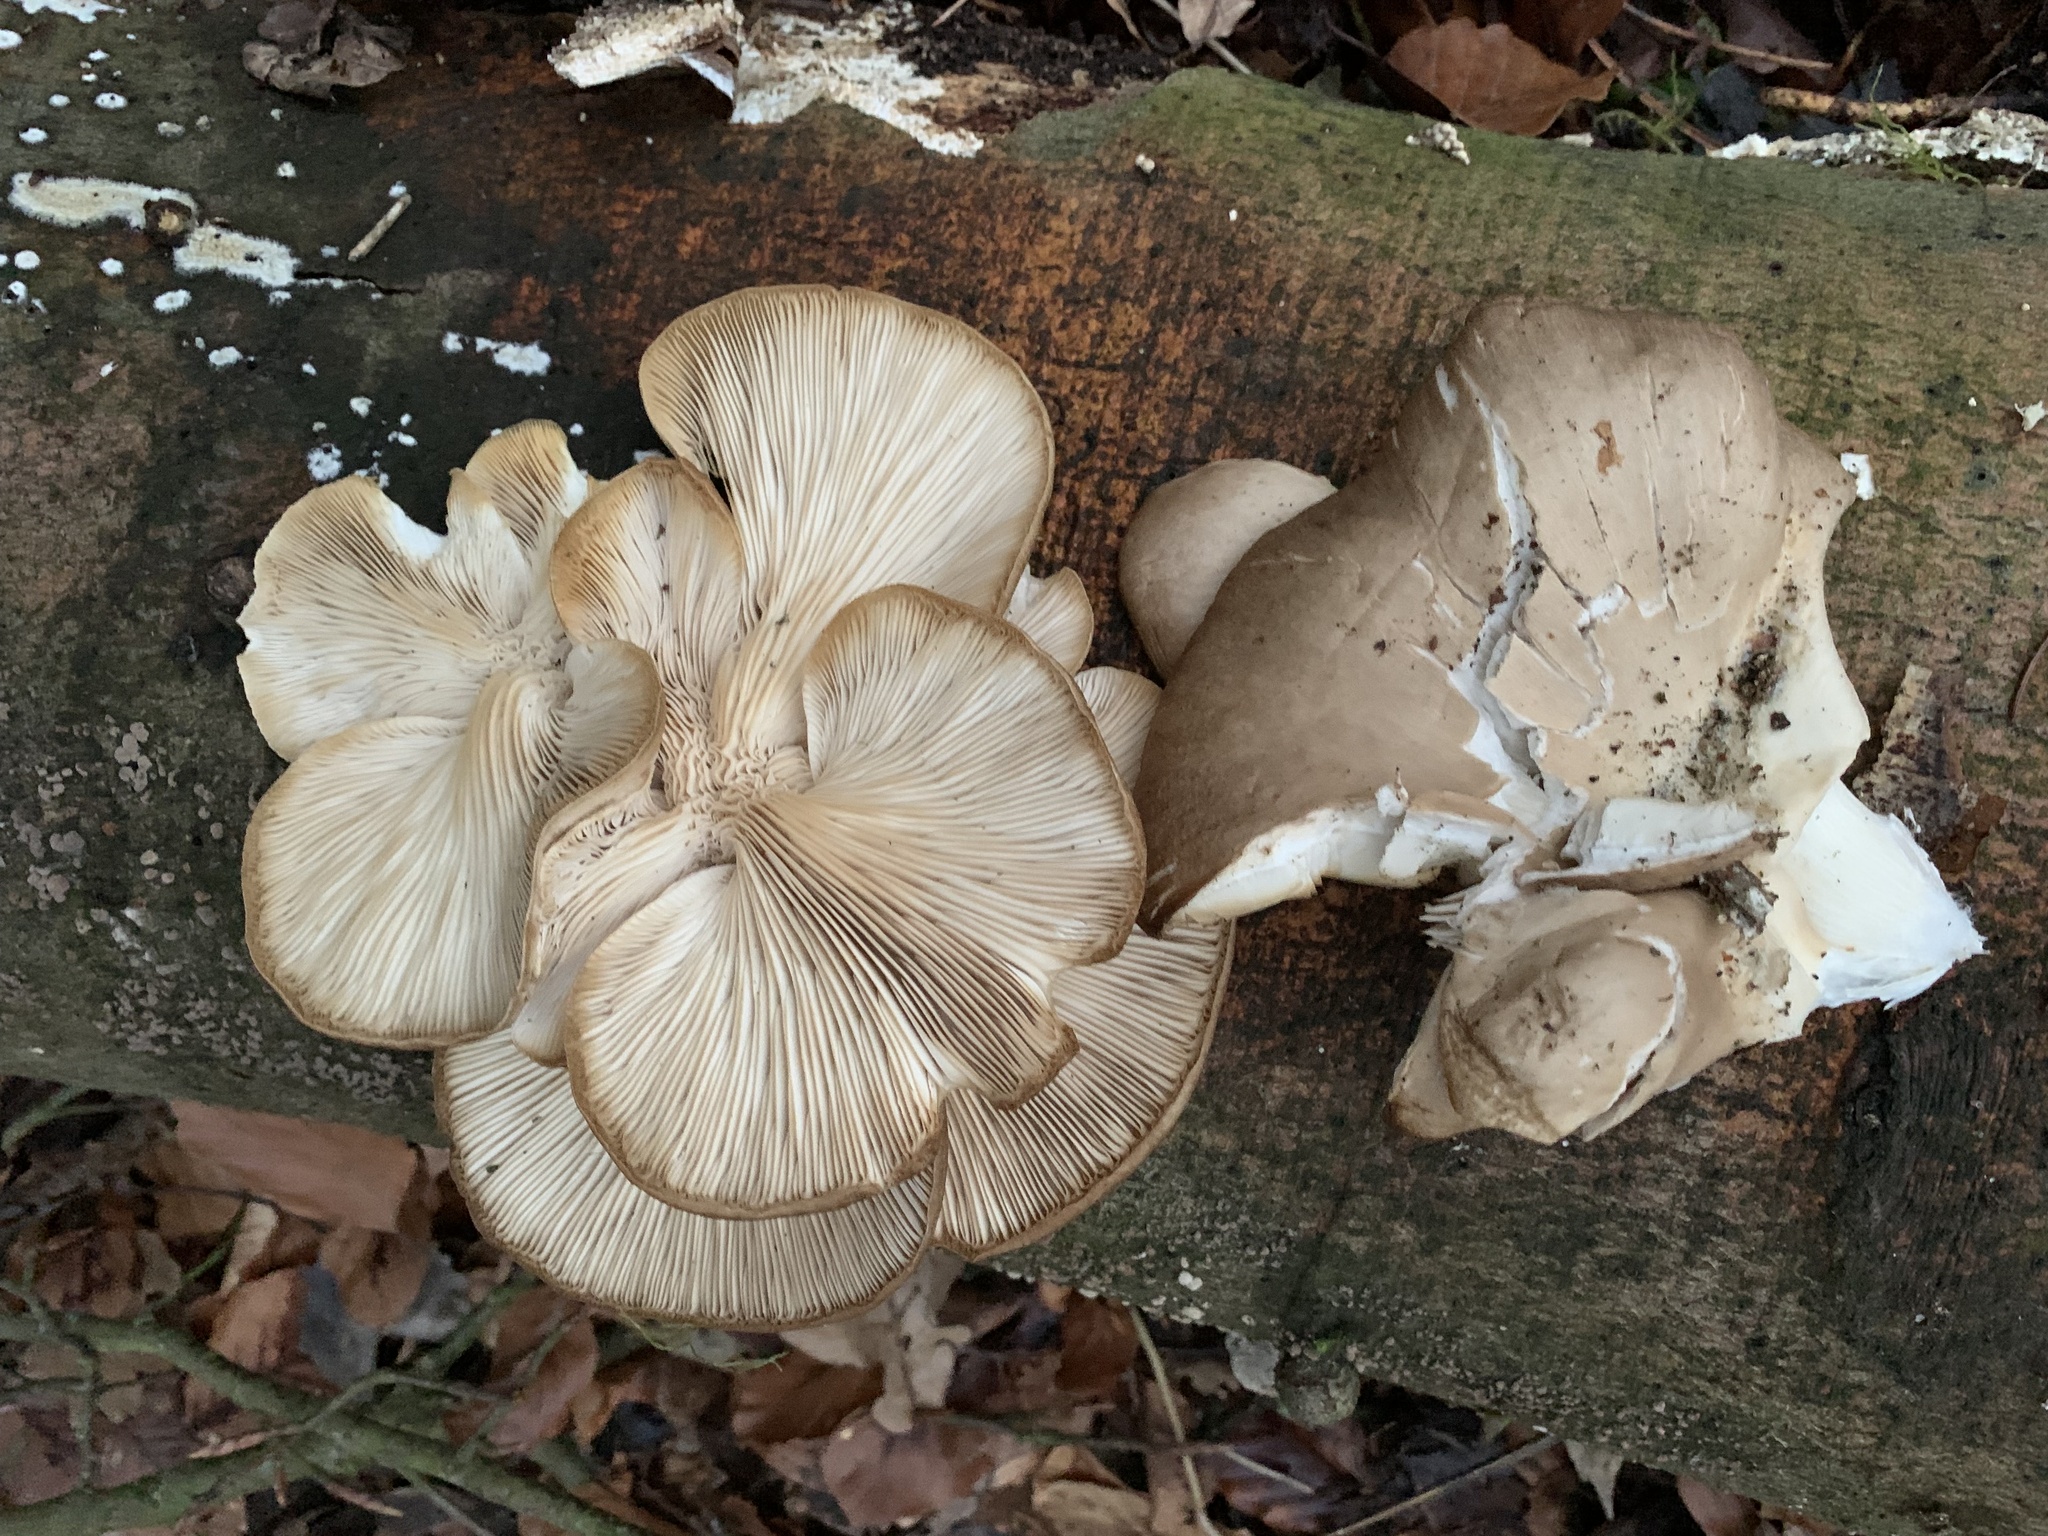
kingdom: Fungi
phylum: Basidiomycota
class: Agaricomycetes
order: Agaricales
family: Pleurotaceae
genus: Pleurotus
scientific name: Pleurotus ostreatus
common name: Oyster mushroom
